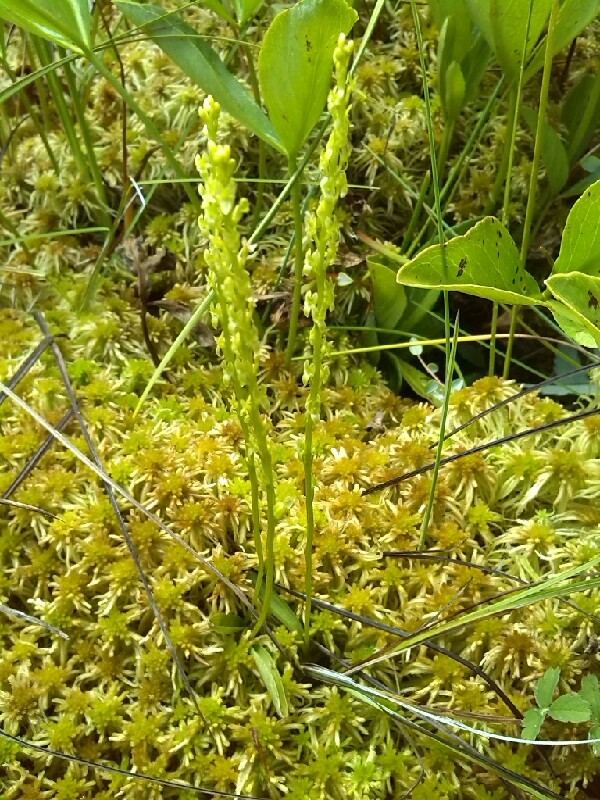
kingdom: Plantae
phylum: Tracheophyta
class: Liliopsida
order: Asparagales
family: Orchidaceae
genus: Hammarbya
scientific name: Hammarbya paludosa
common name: Bog orchid
